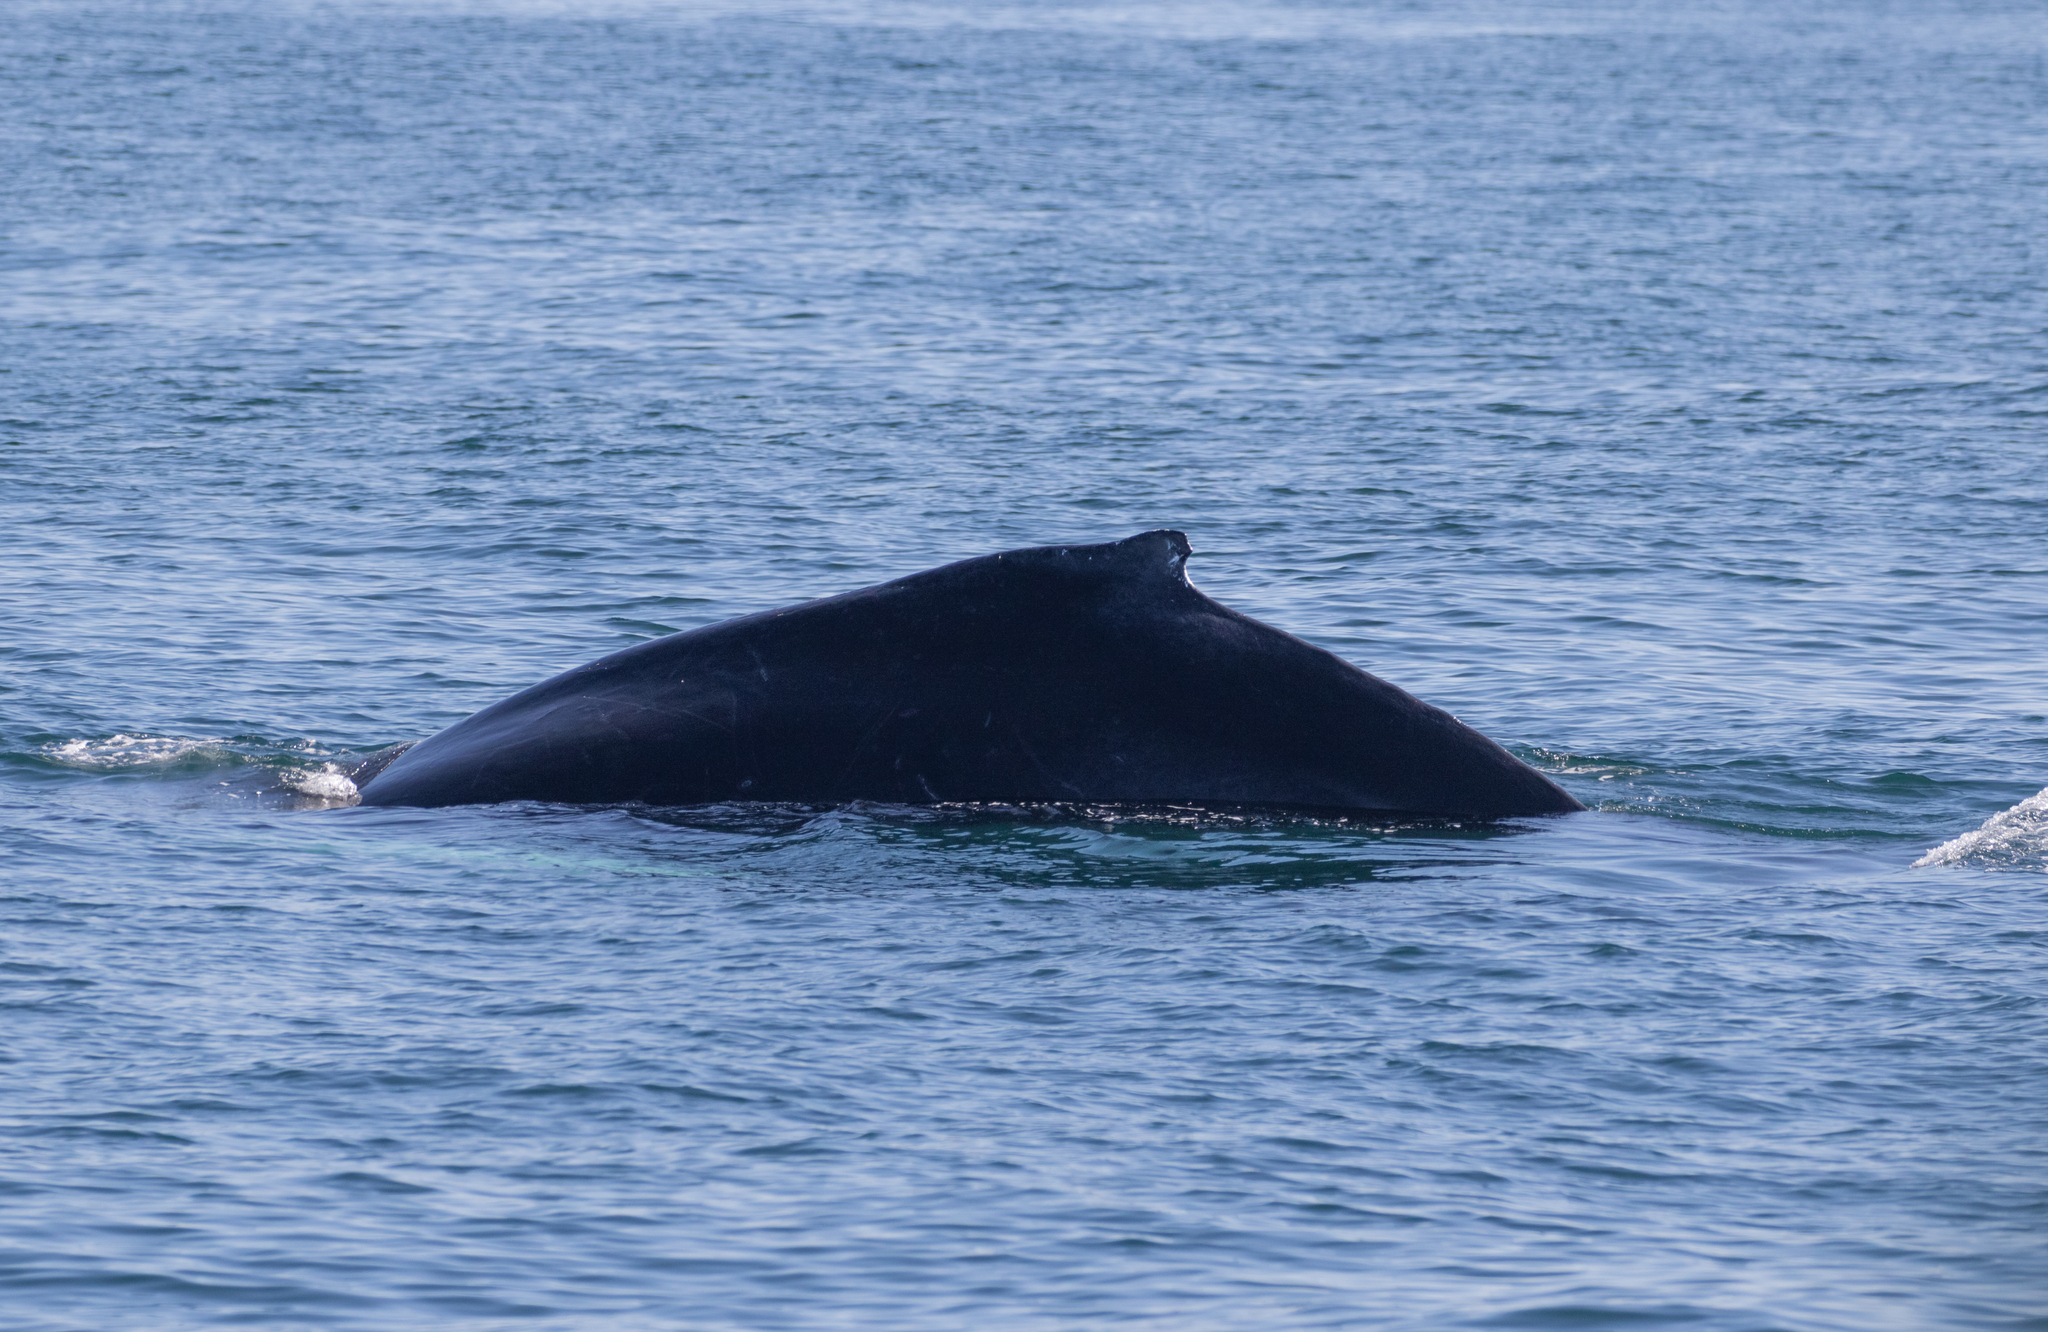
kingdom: Animalia
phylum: Chordata
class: Mammalia
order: Cetacea
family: Balaenopteridae
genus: Megaptera
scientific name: Megaptera novaeangliae
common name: Humpback whale
